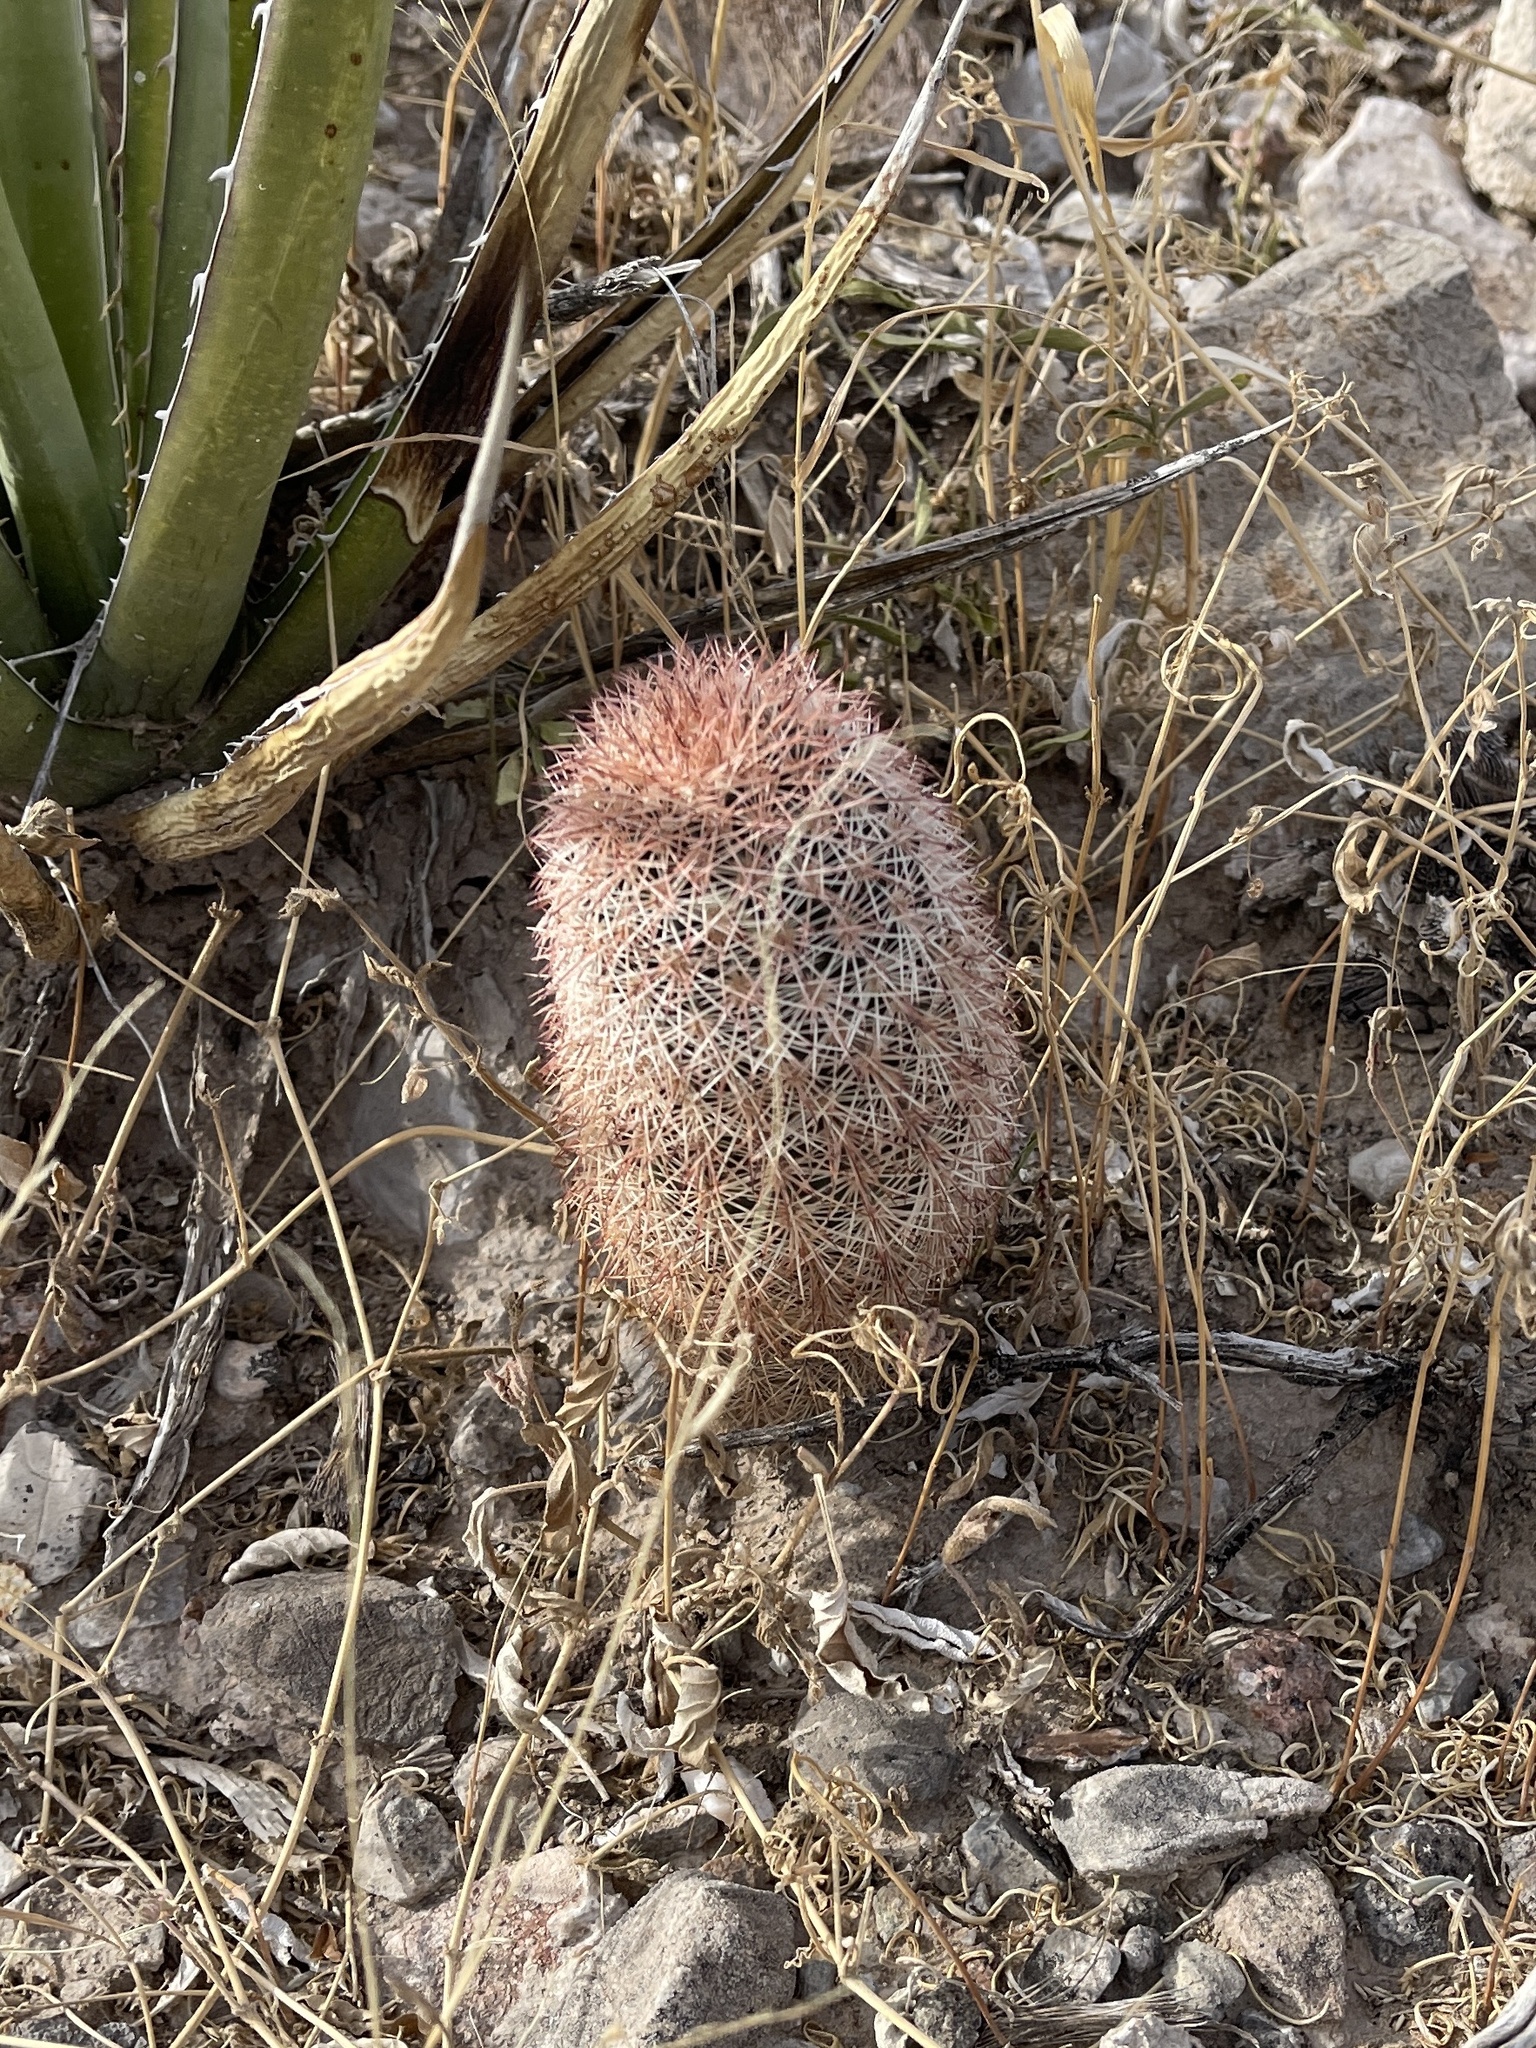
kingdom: Plantae
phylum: Tracheophyta
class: Magnoliopsida
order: Caryophyllales
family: Cactaceae
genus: Echinocereus
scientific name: Echinocereus dasyacanthus
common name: Spiny hedgehog cactus
